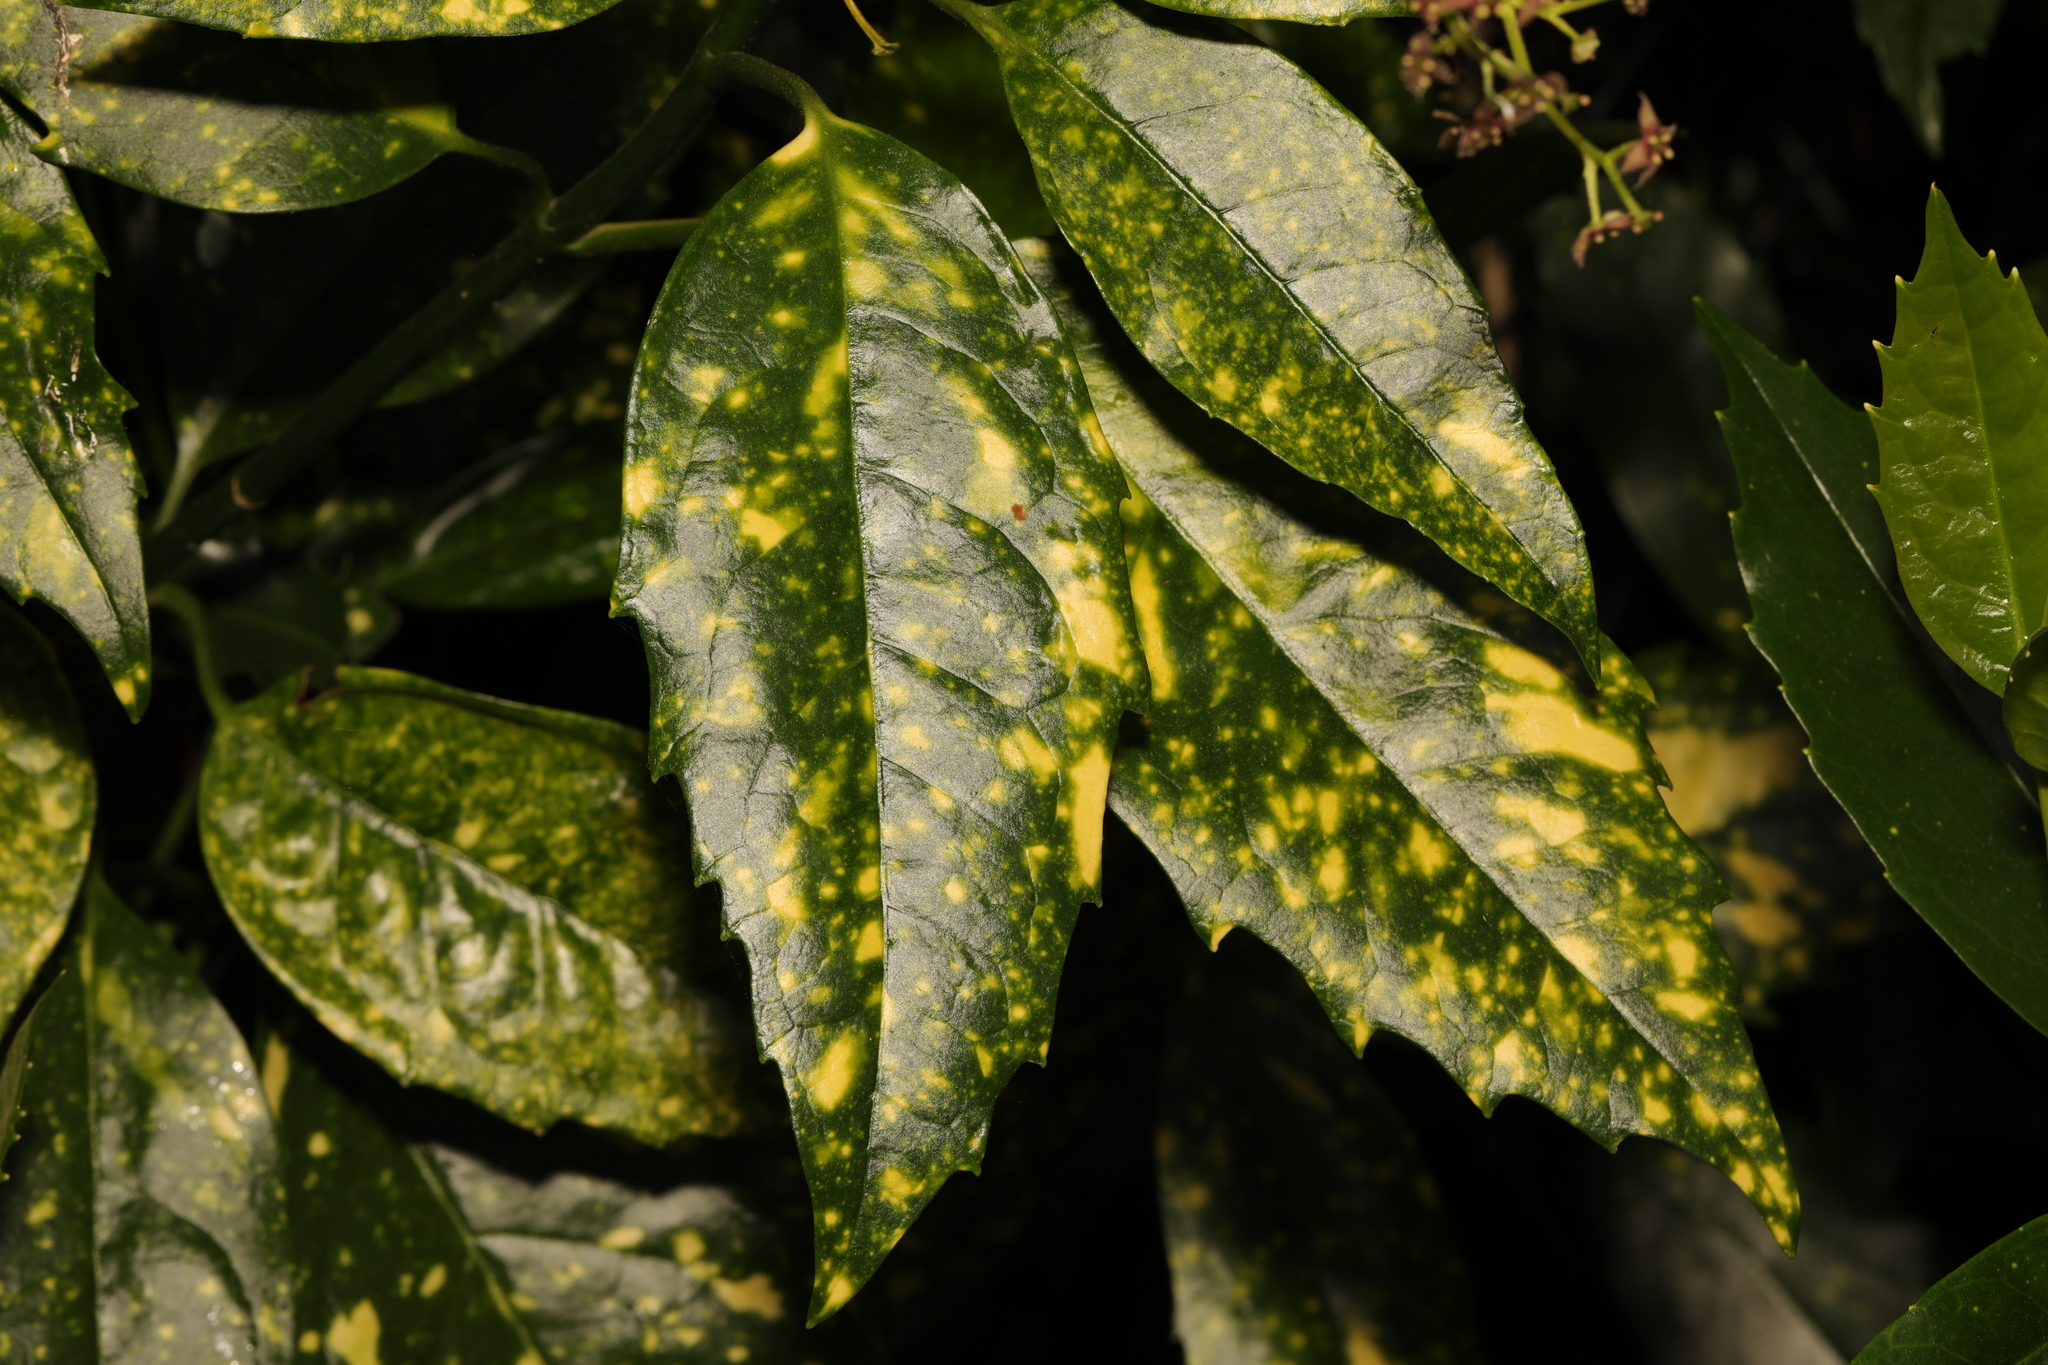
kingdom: Plantae
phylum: Tracheophyta
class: Magnoliopsida
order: Garryales
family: Garryaceae
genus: Aucuba
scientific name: Aucuba japonica
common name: Spotted-laurel
